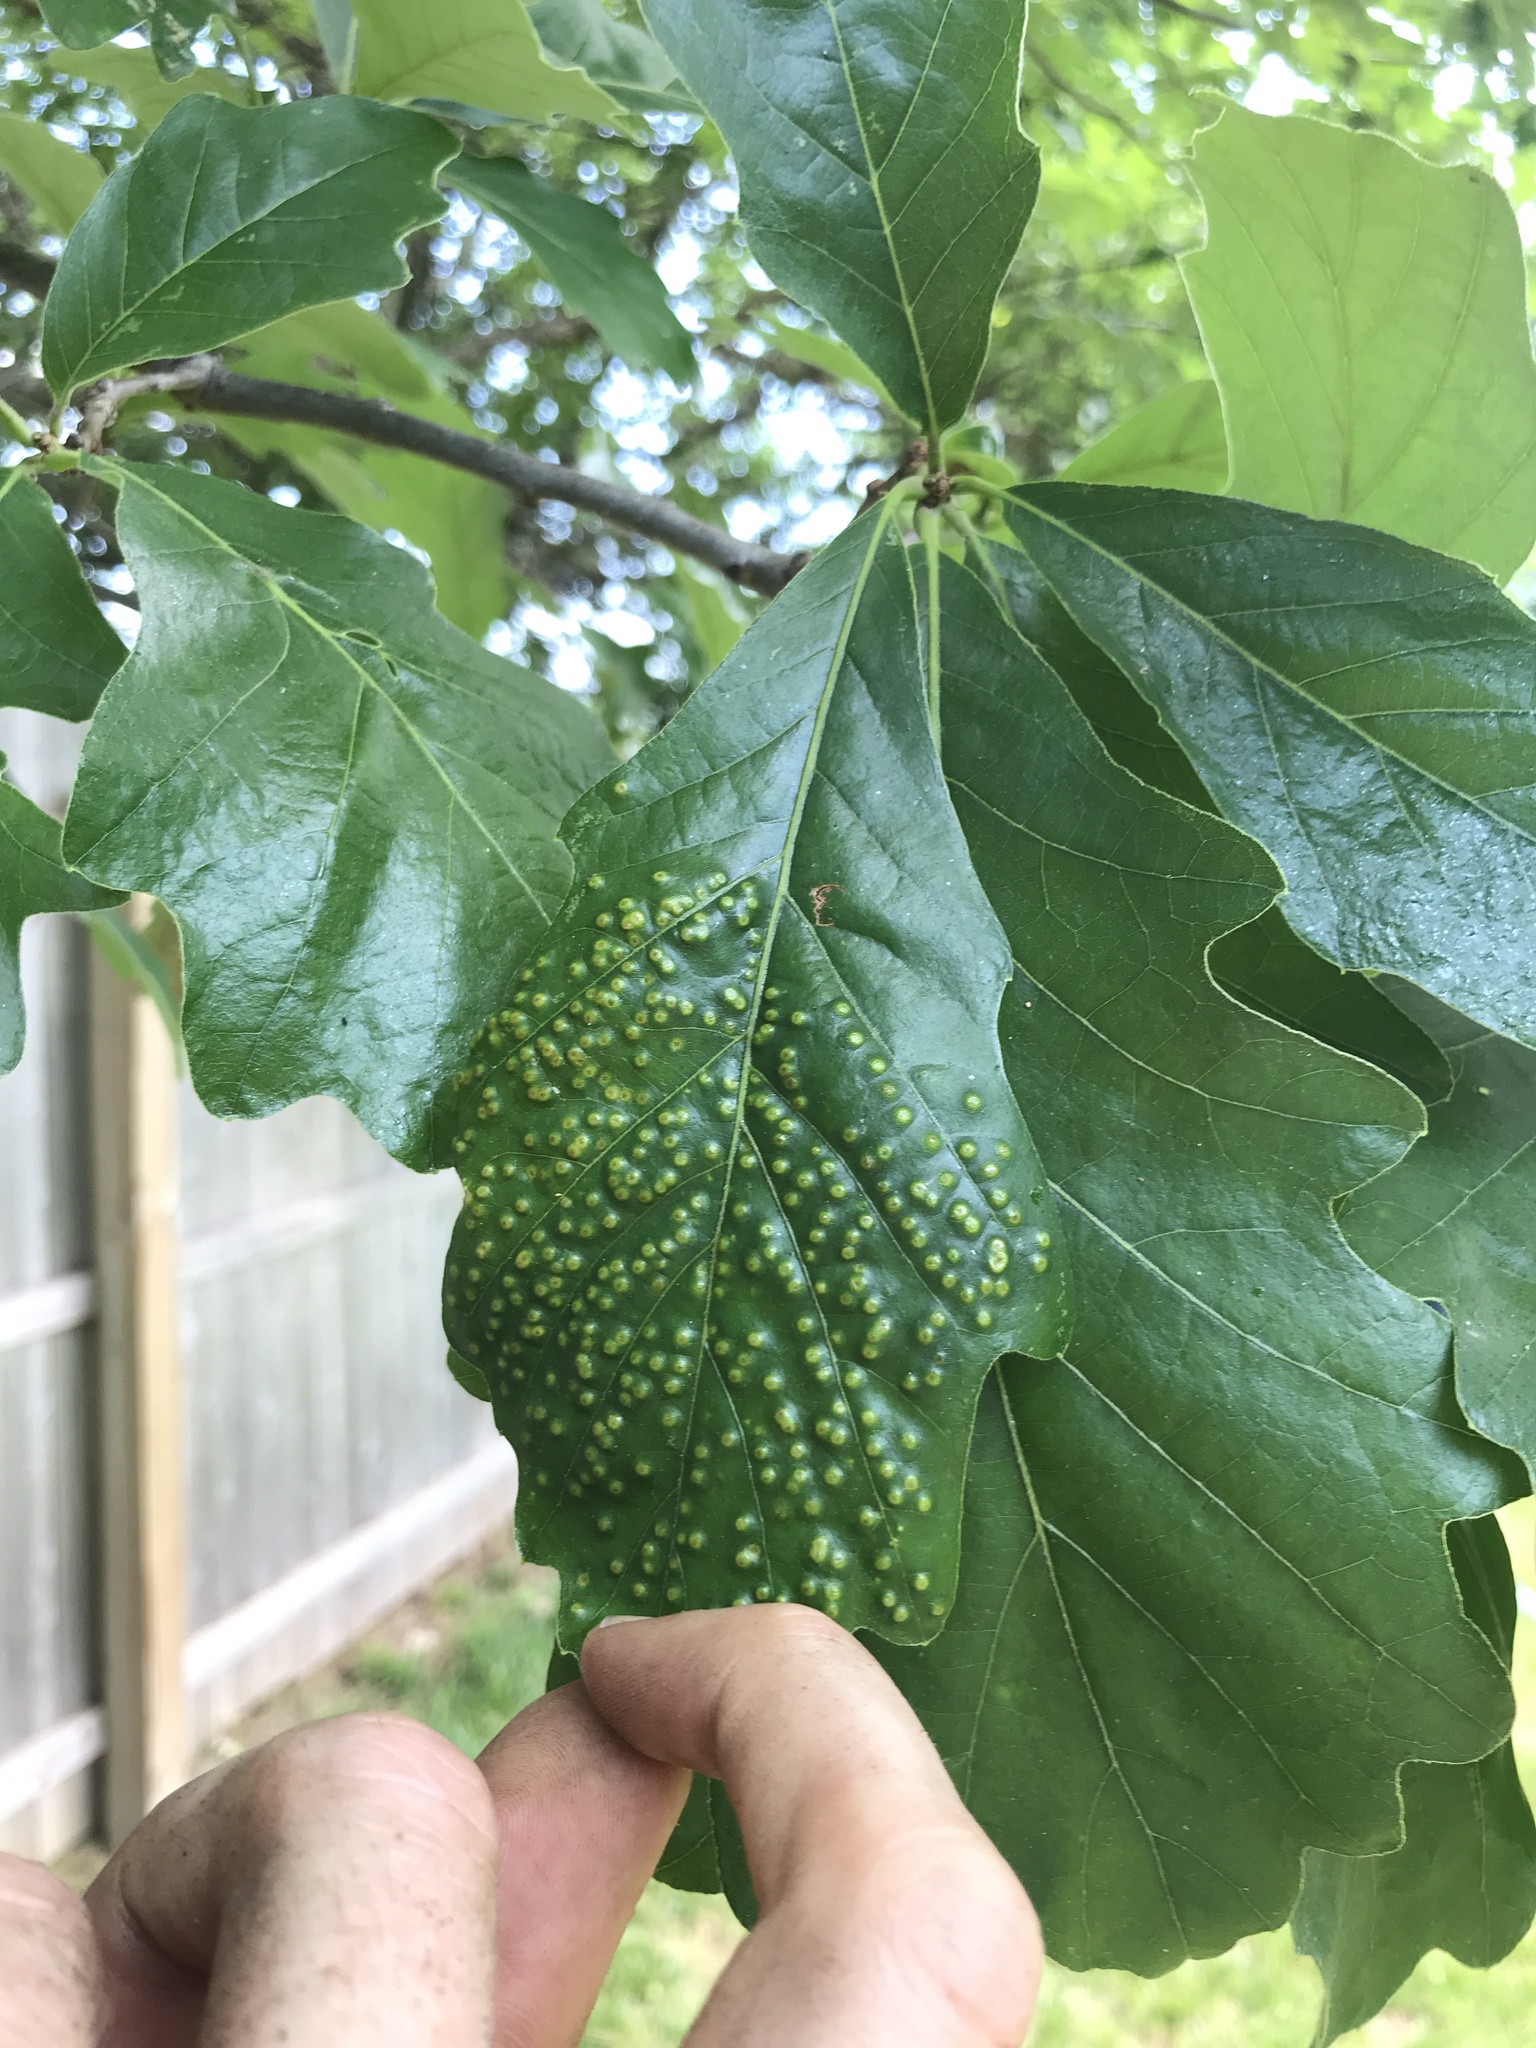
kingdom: Animalia
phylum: Arthropoda
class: Insecta
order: Hymenoptera
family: Cynipidae
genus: Neuroterus
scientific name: Neuroterus saltarius
